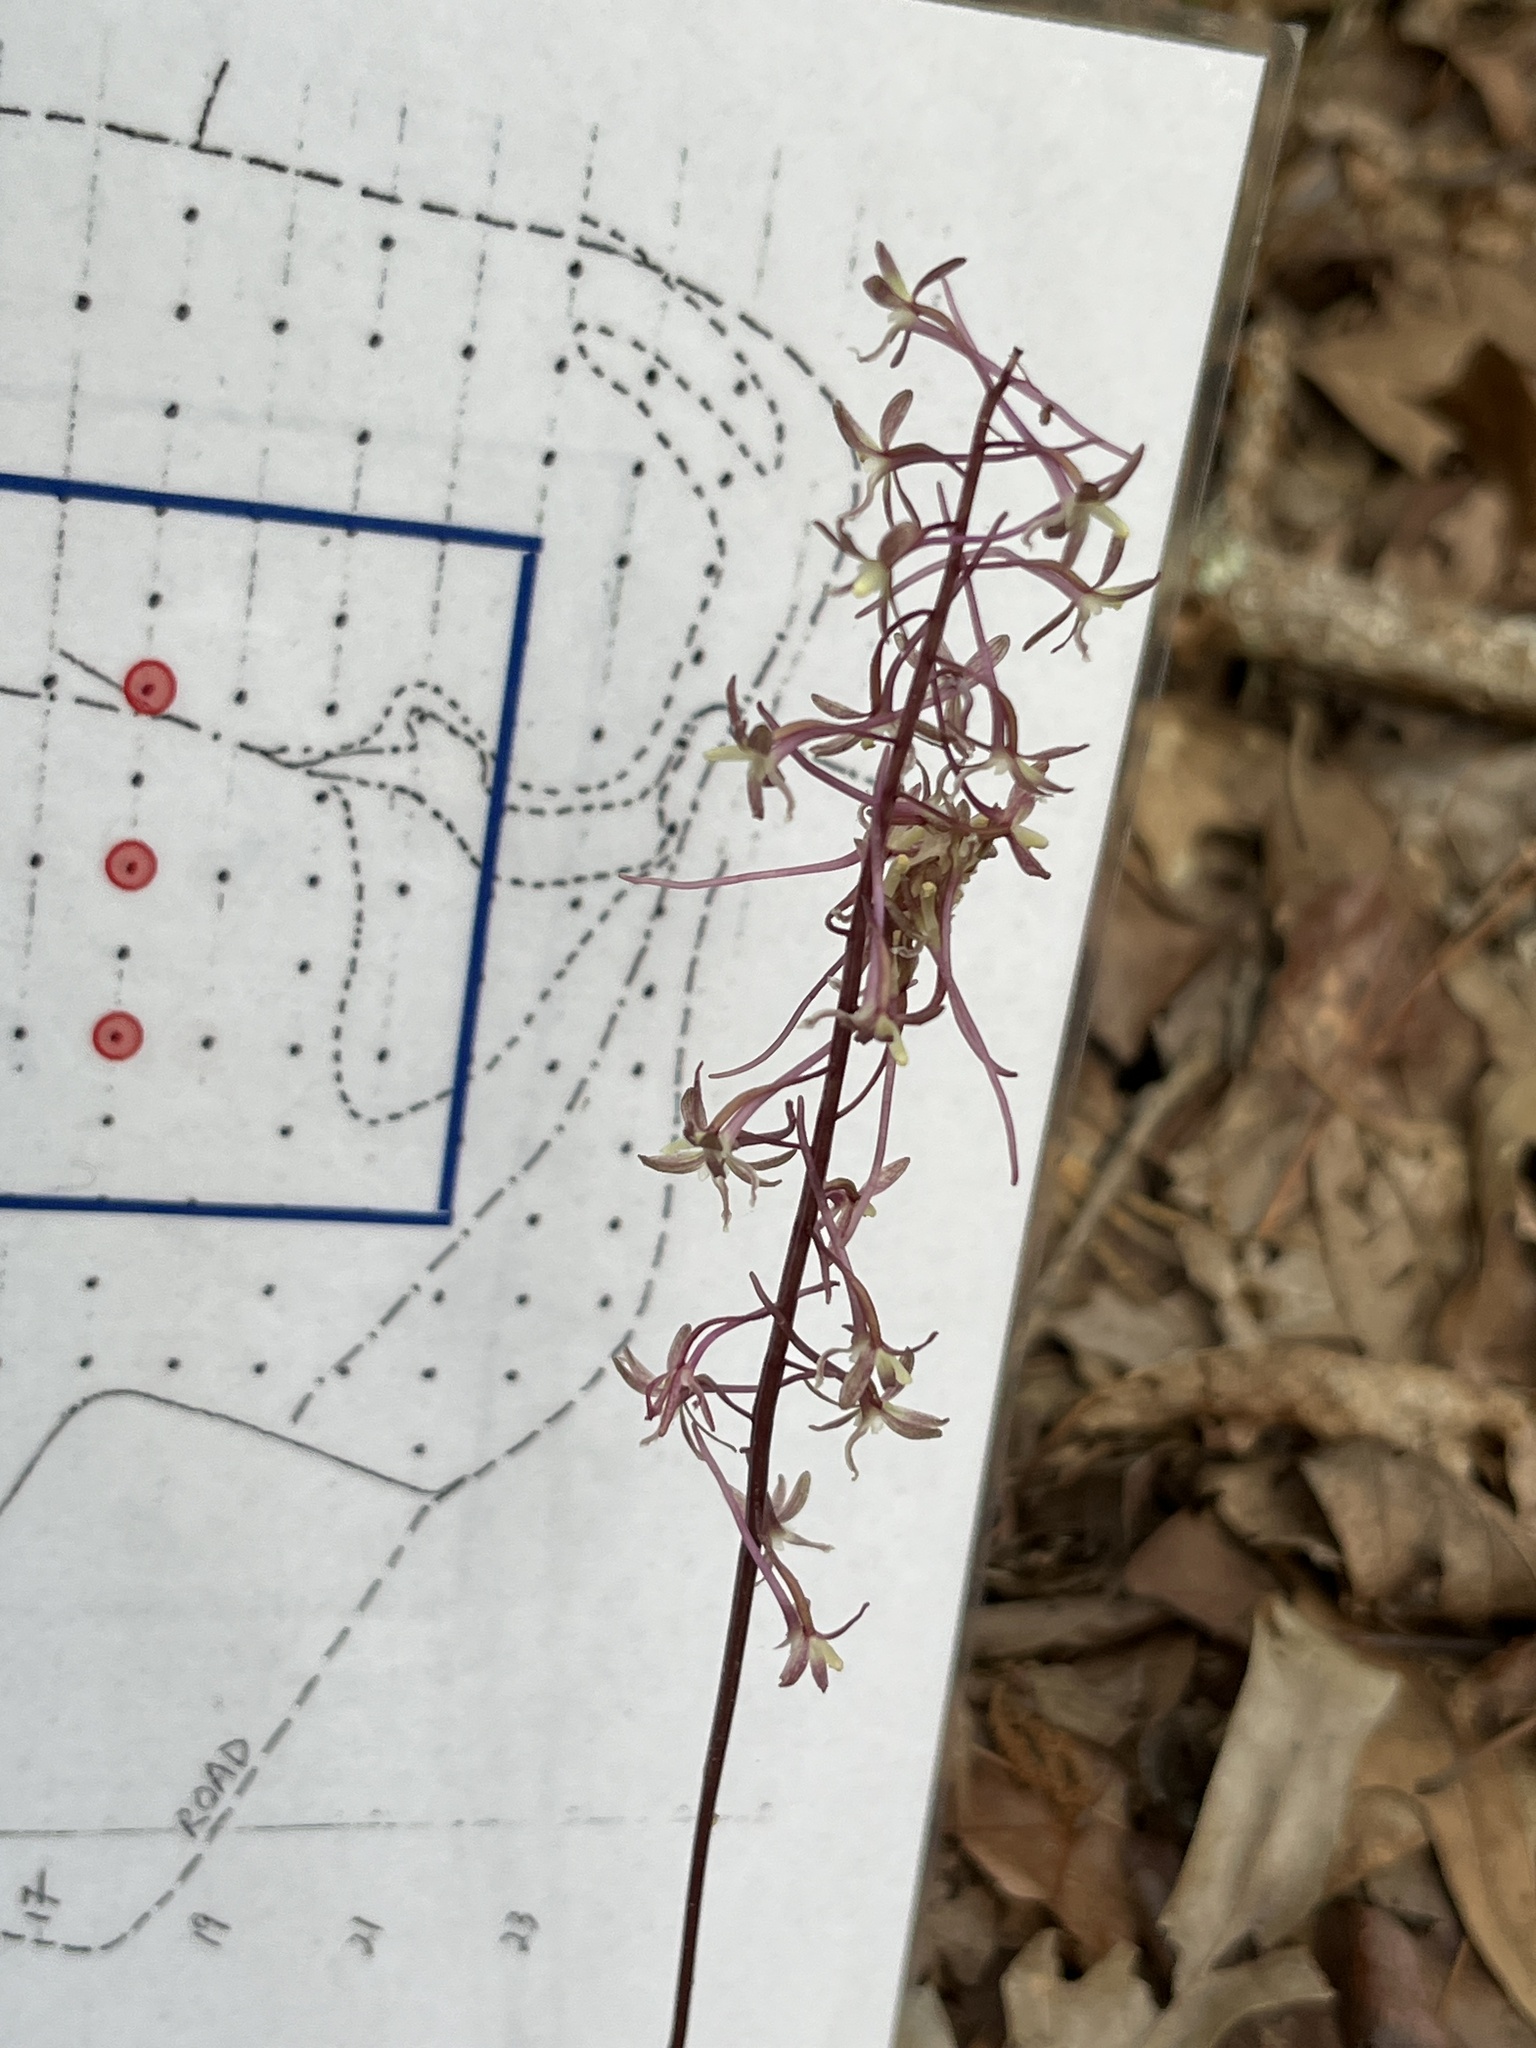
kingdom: Plantae
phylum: Tracheophyta
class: Liliopsida
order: Asparagales
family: Orchidaceae
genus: Tipularia
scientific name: Tipularia discolor
